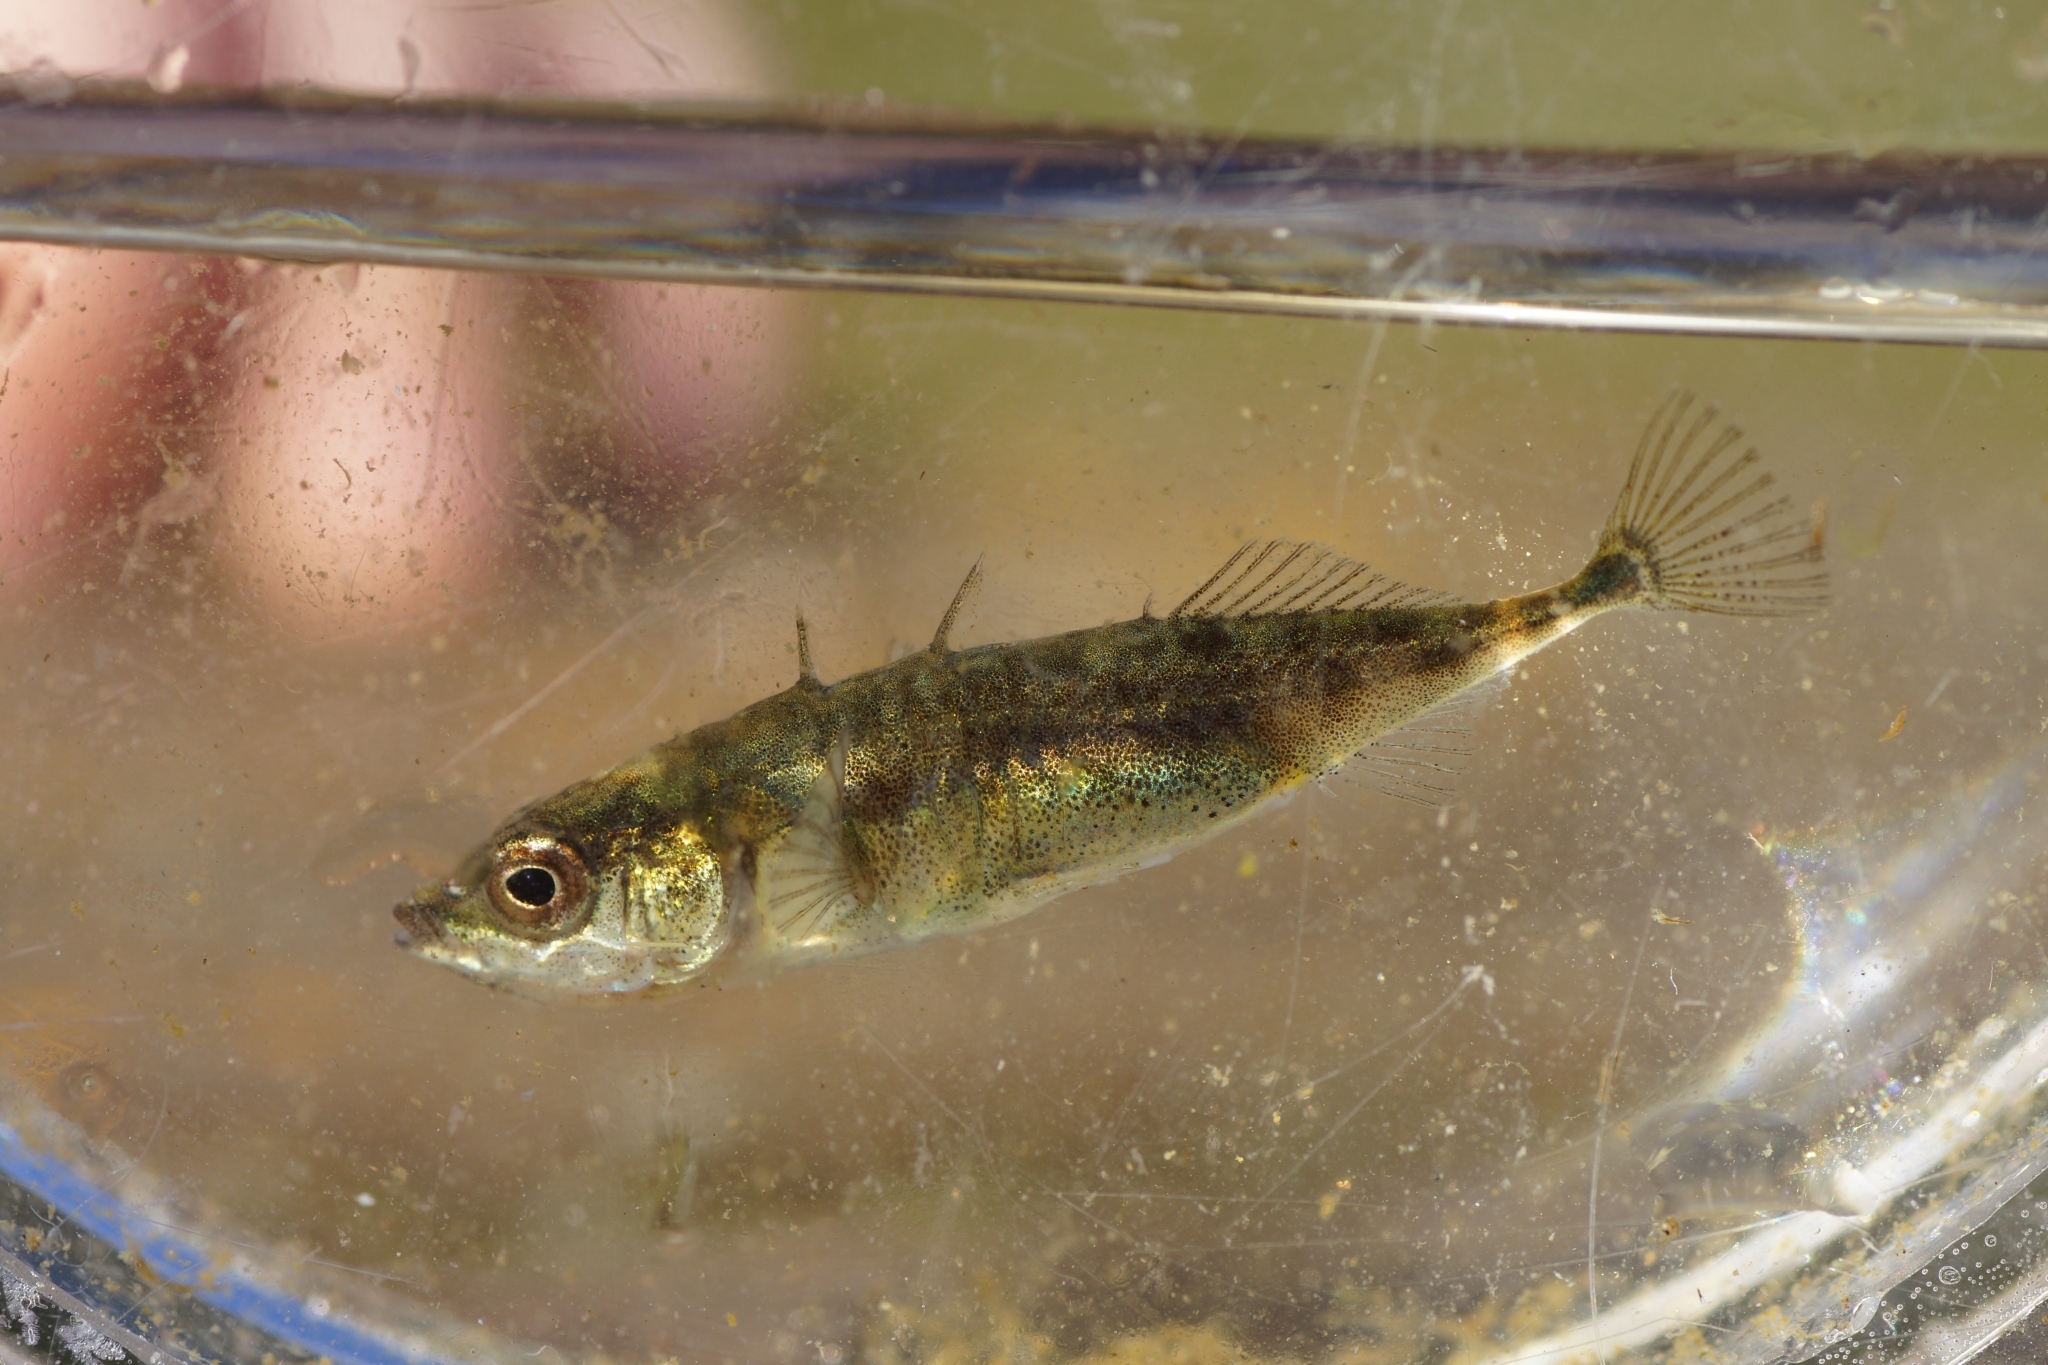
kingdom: Animalia
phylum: Chordata
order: Gasterosteiformes
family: Gasterosteidae
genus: Gasterosteus
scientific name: Gasterosteus aculeatus
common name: Three-spined stickleback
